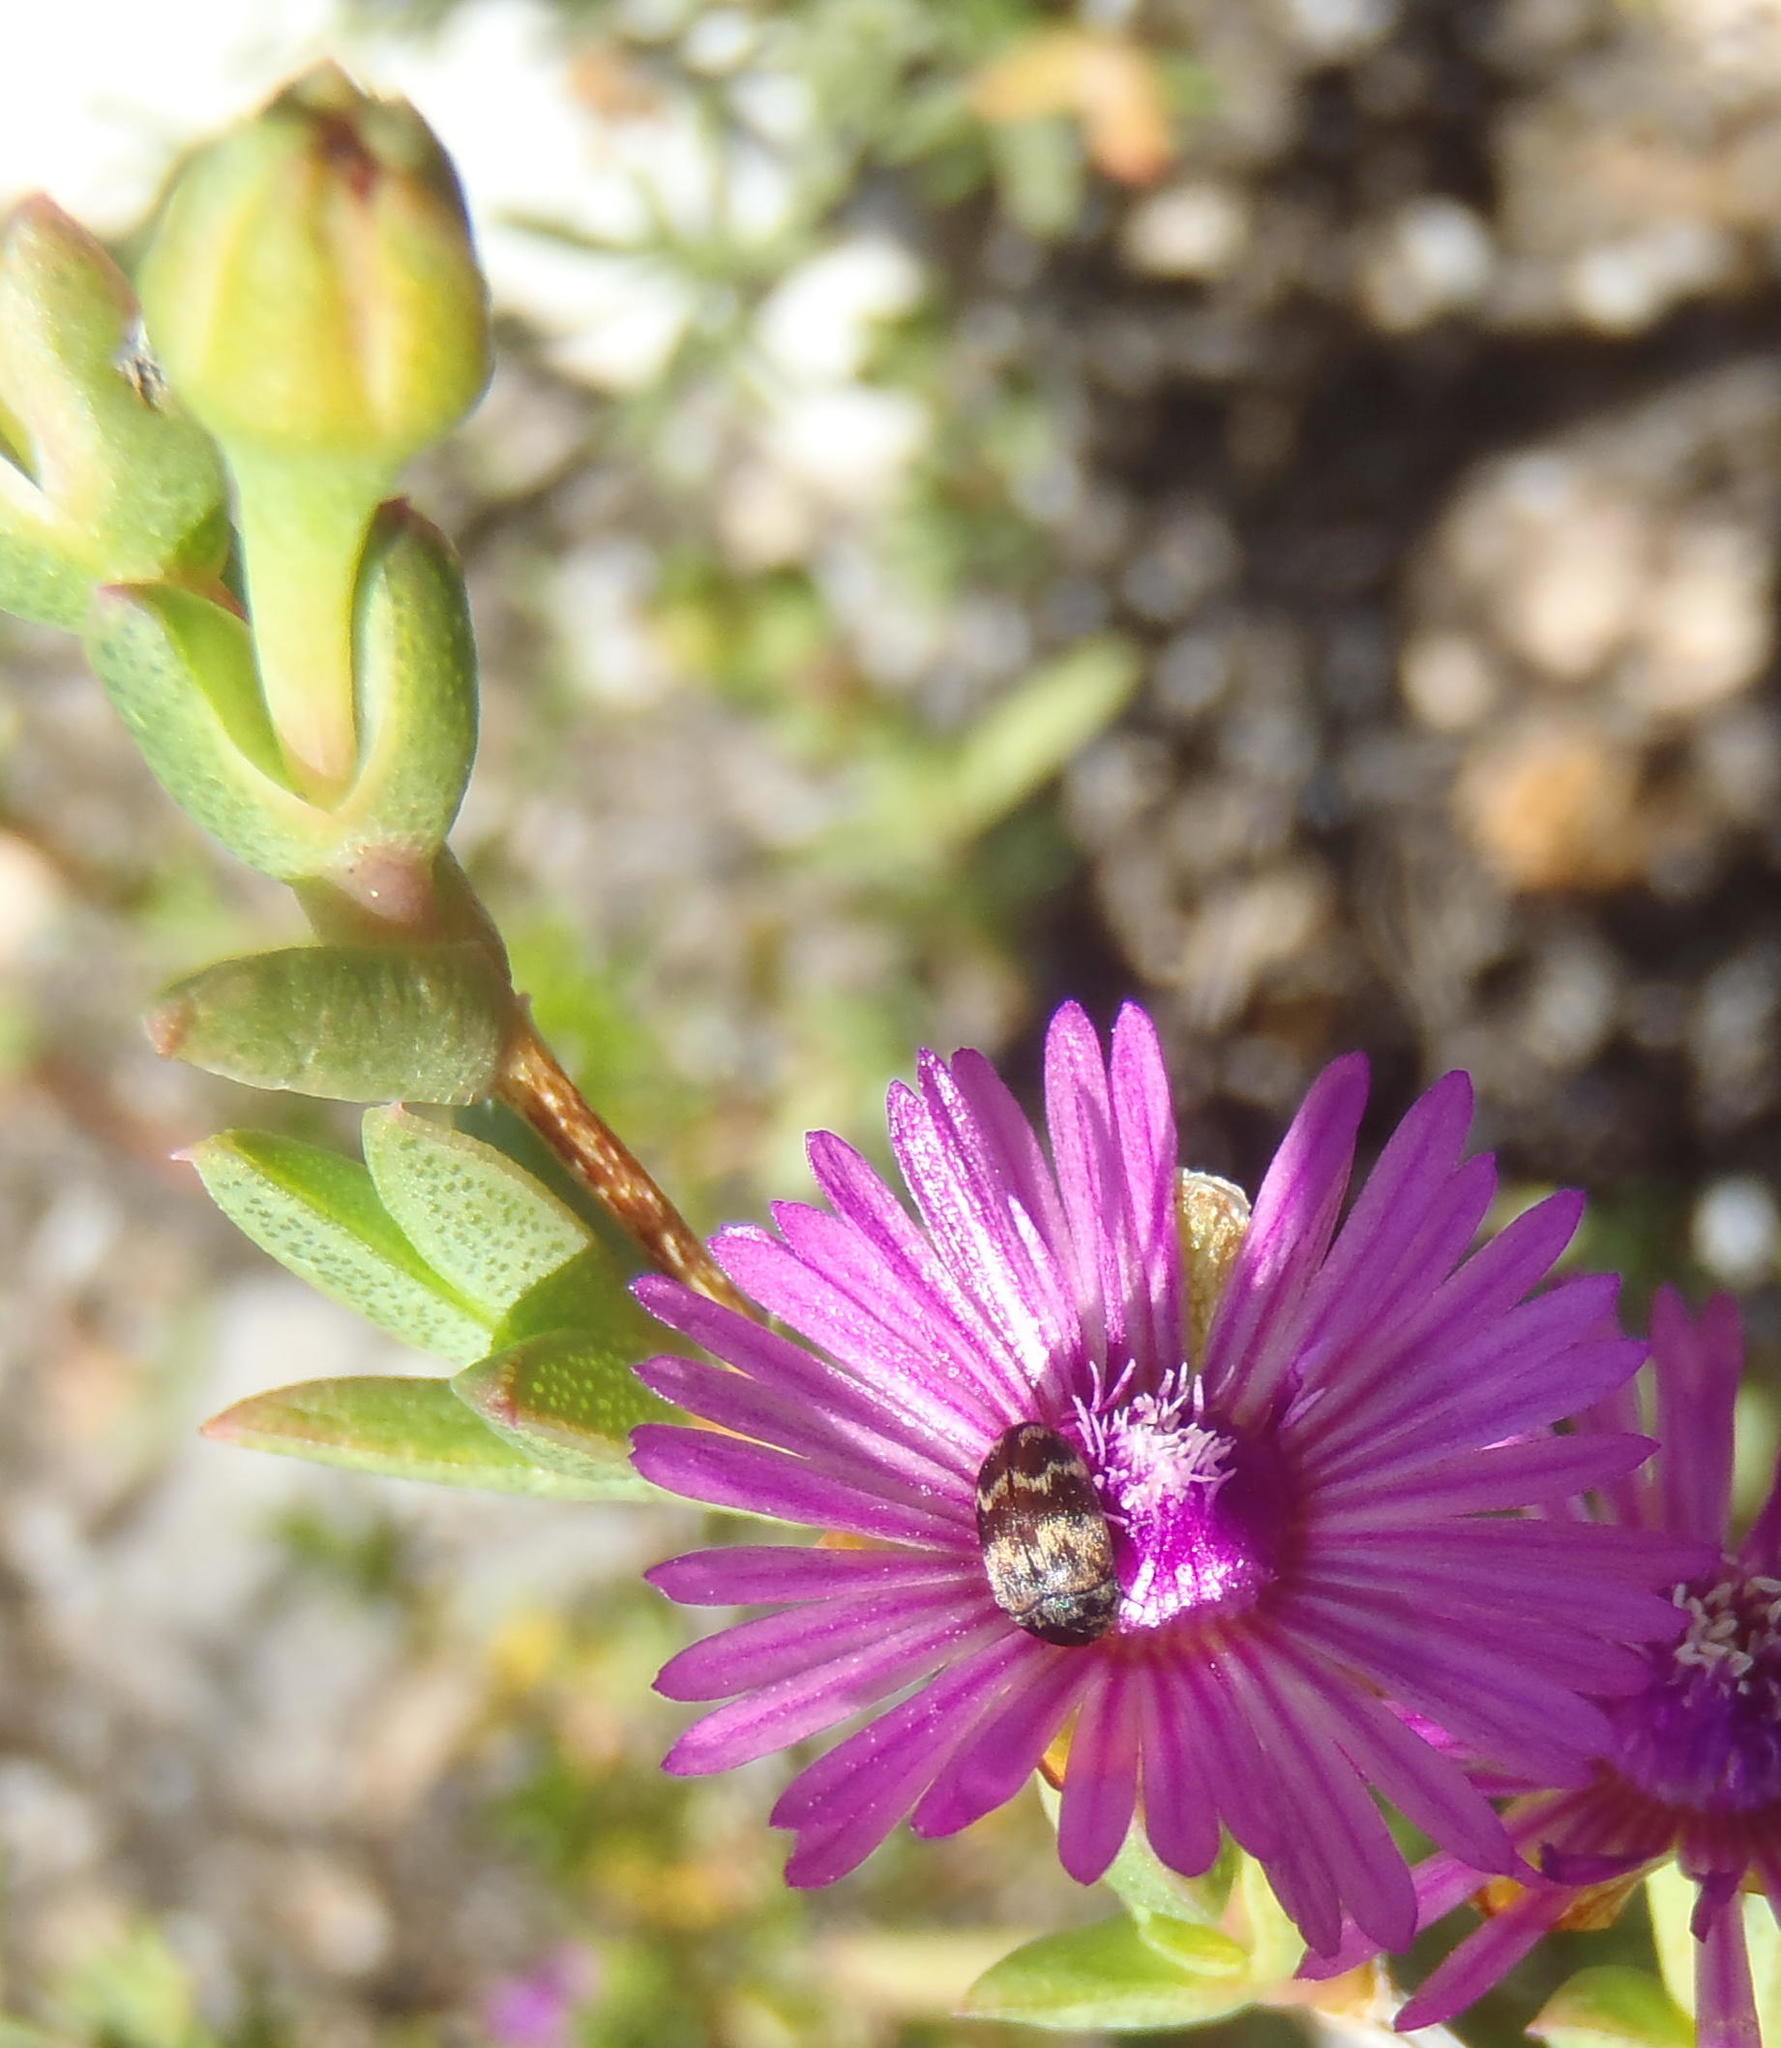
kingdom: Plantae
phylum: Tracheophyta
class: Magnoliopsida
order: Caryophyllales
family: Aizoaceae
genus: Ruschia
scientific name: Ruschia orientalis
